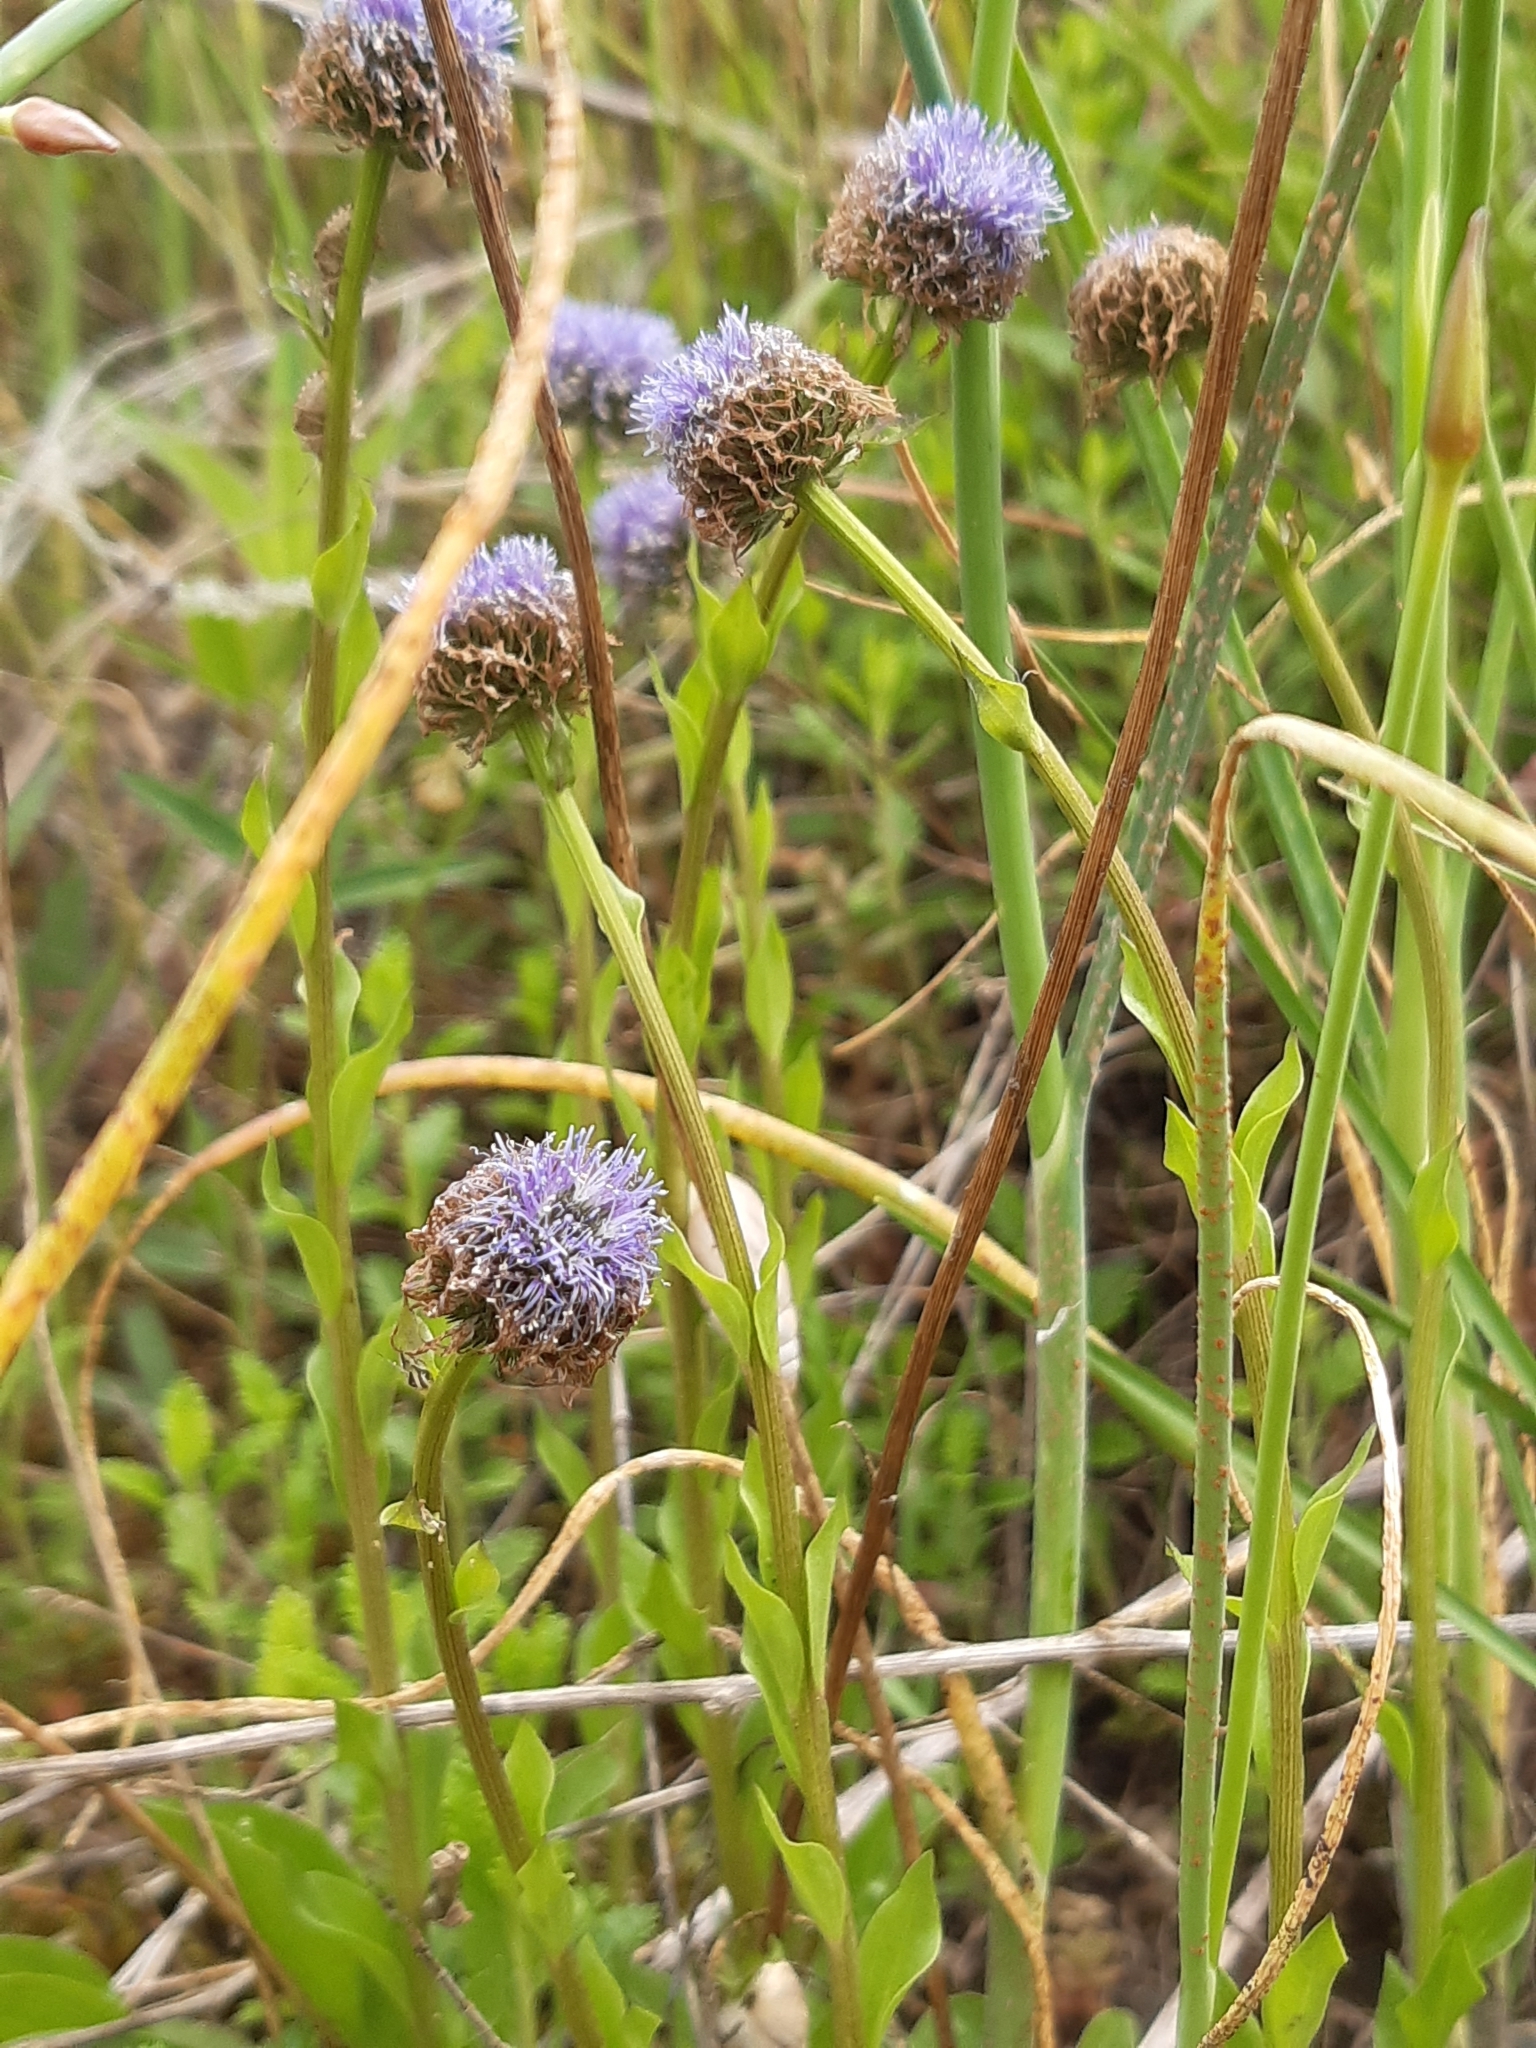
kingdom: Plantae
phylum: Tracheophyta
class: Magnoliopsida
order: Lamiales
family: Plantaginaceae
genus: Globularia
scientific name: Globularia bisnagarica
